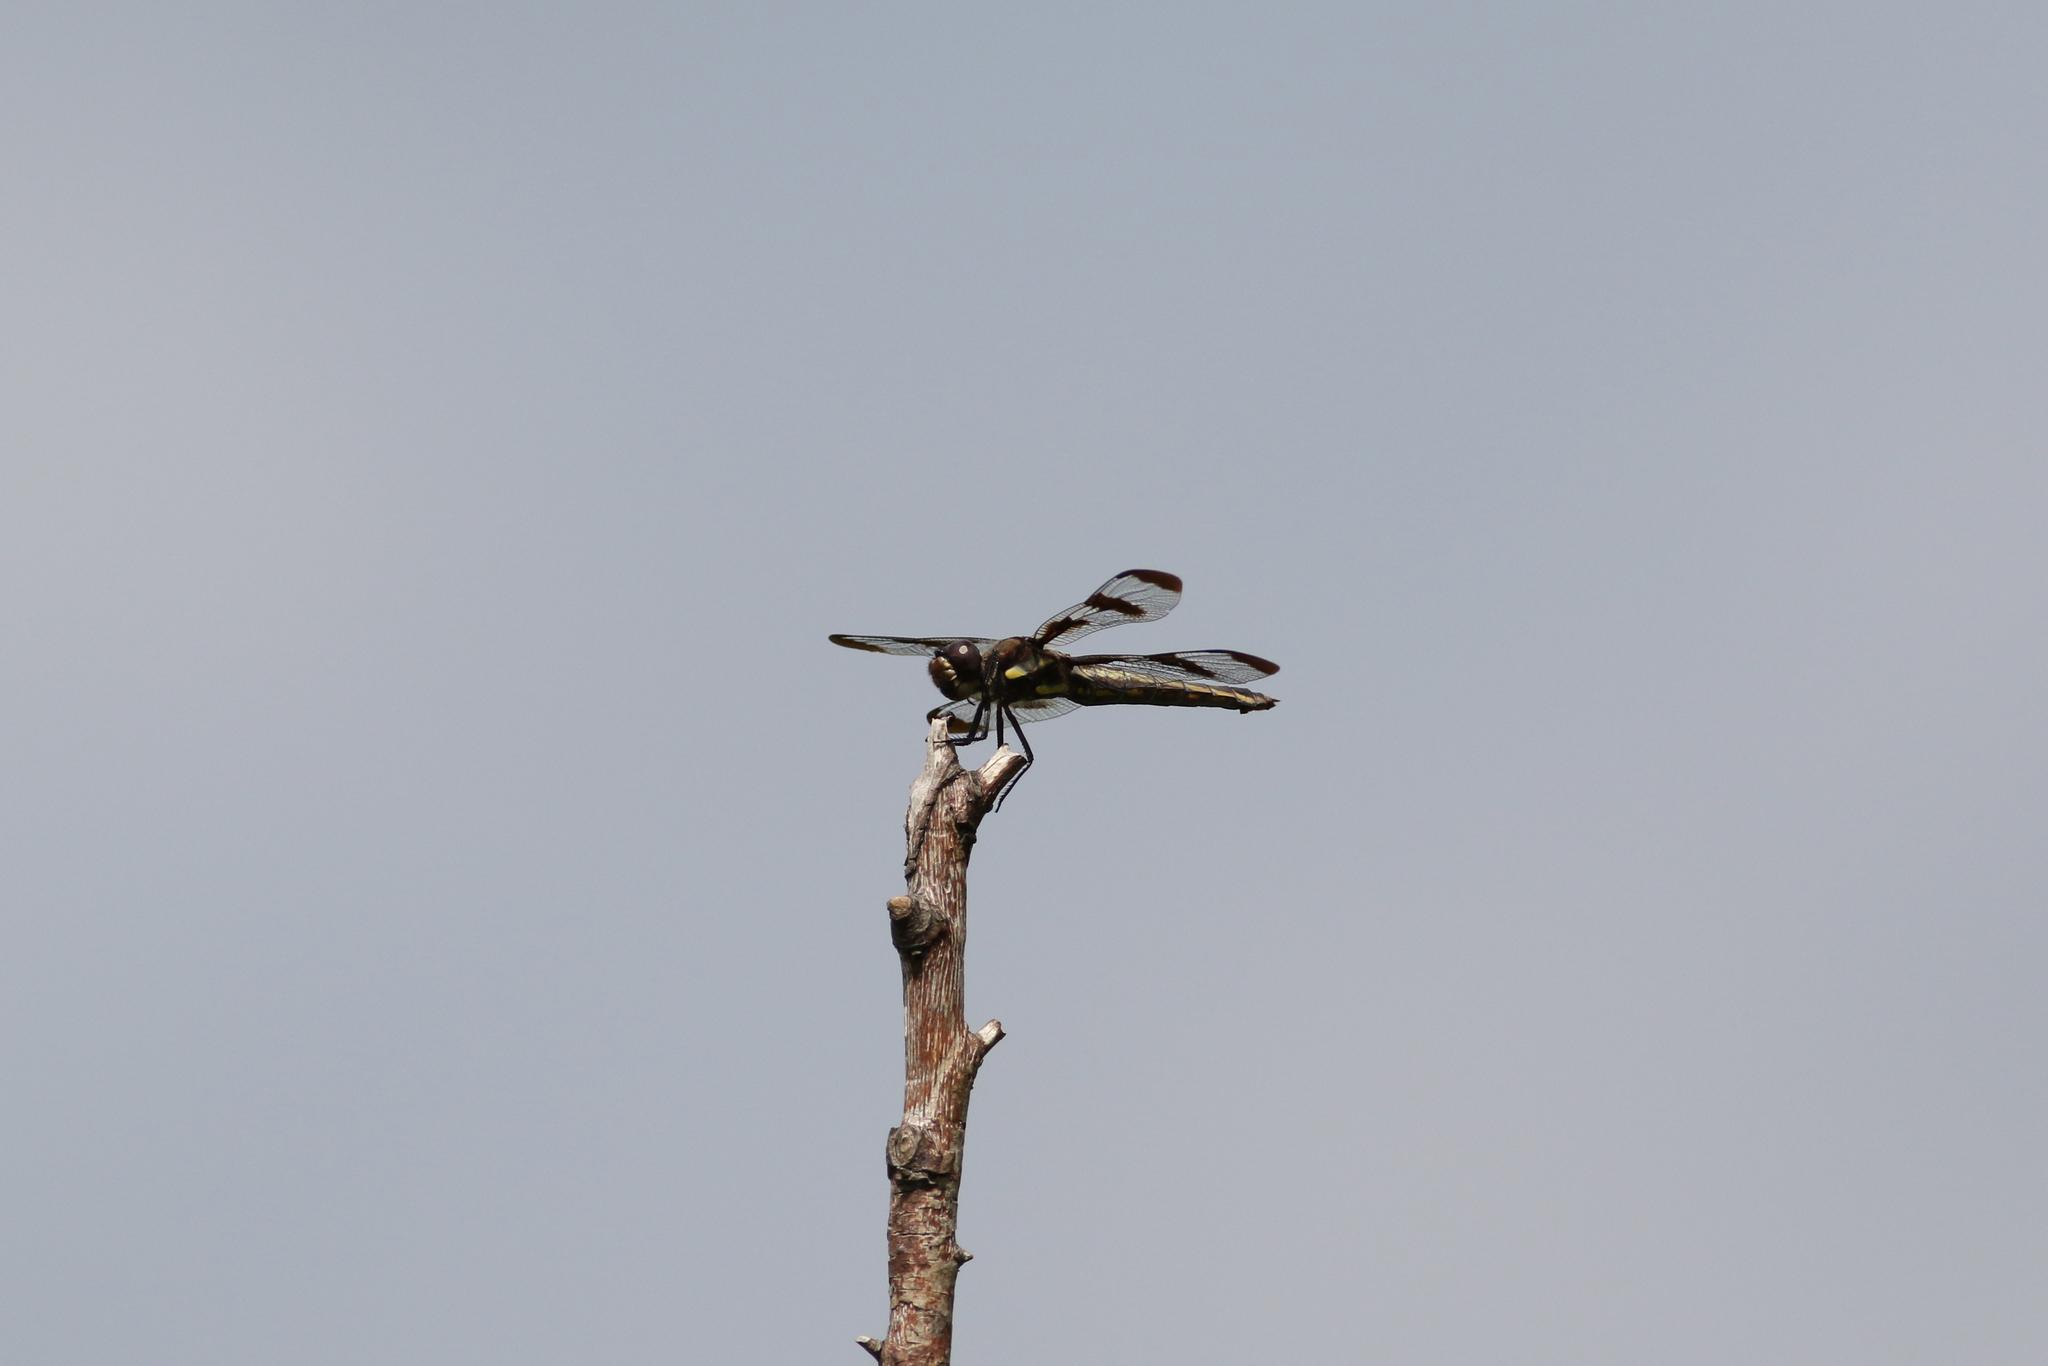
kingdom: Animalia
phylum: Arthropoda
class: Insecta
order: Odonata
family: Libellulidae
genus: Libellula
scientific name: Libellula pulchella
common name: Twelve-spotted skimmer
